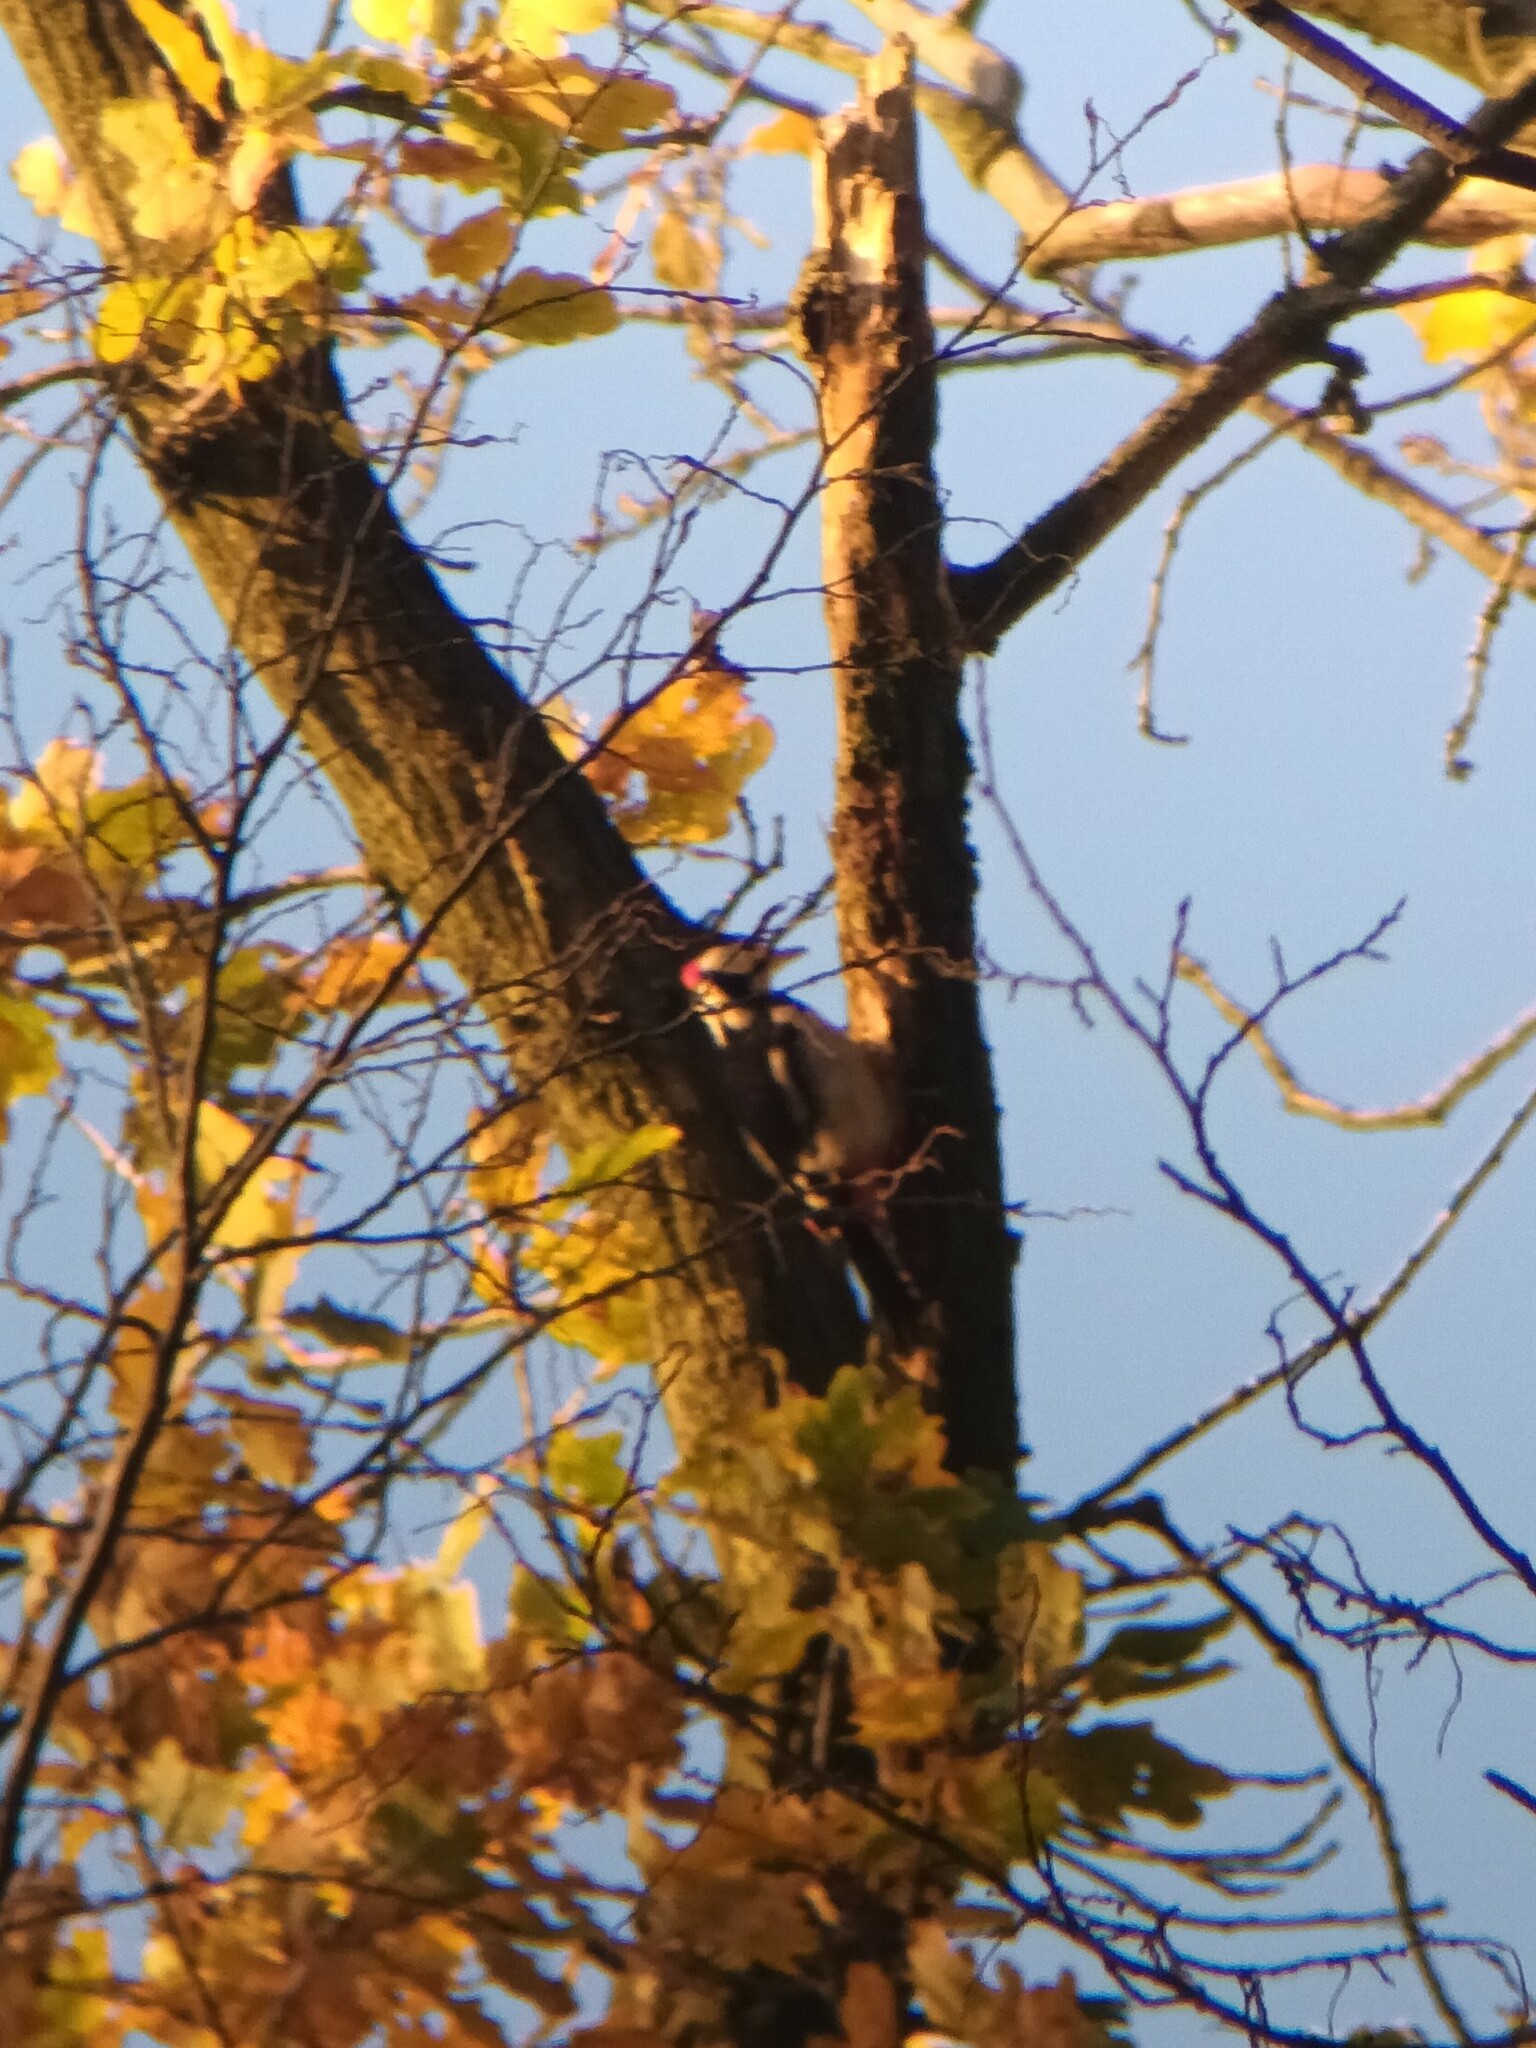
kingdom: Animalia
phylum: Chordata
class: Aves
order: Piciformes
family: Picidae
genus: Dendrocopos
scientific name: Dendrocopos major
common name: Great spotted woodpecker
